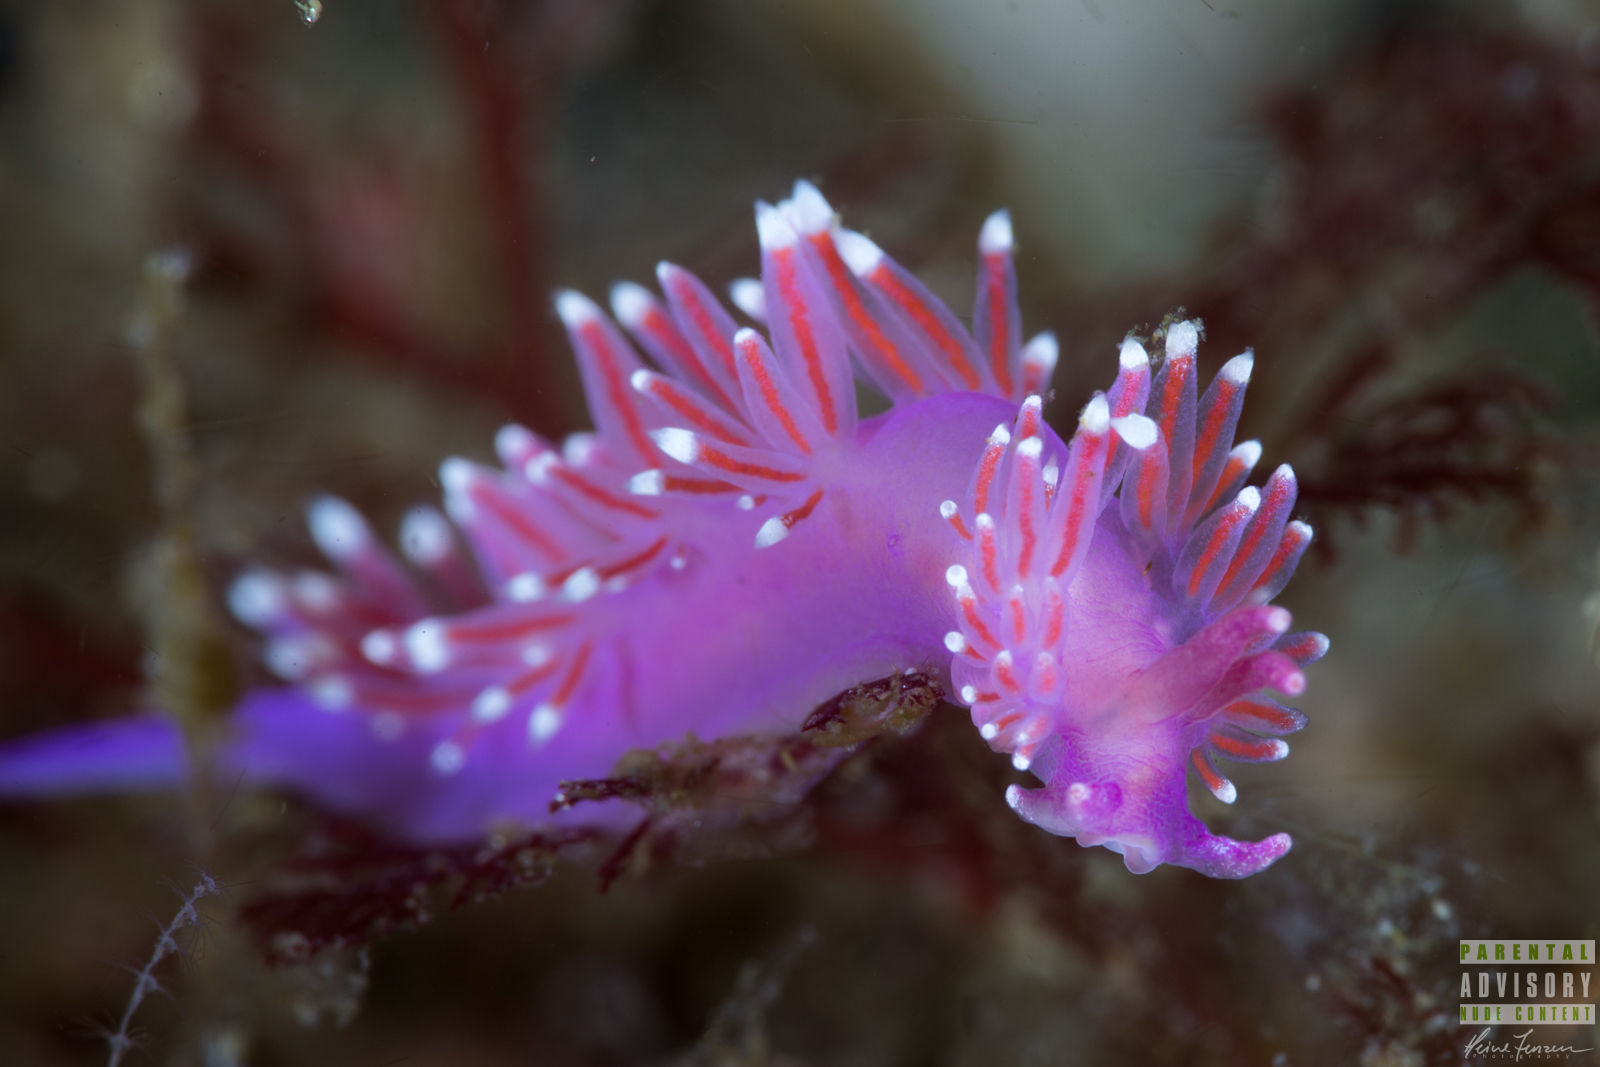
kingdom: Animalia
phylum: Mollusca
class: Gastropoda
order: Nudibranchia
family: Flabellinidae
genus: Edmundsella
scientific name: Edmundsella pedata
